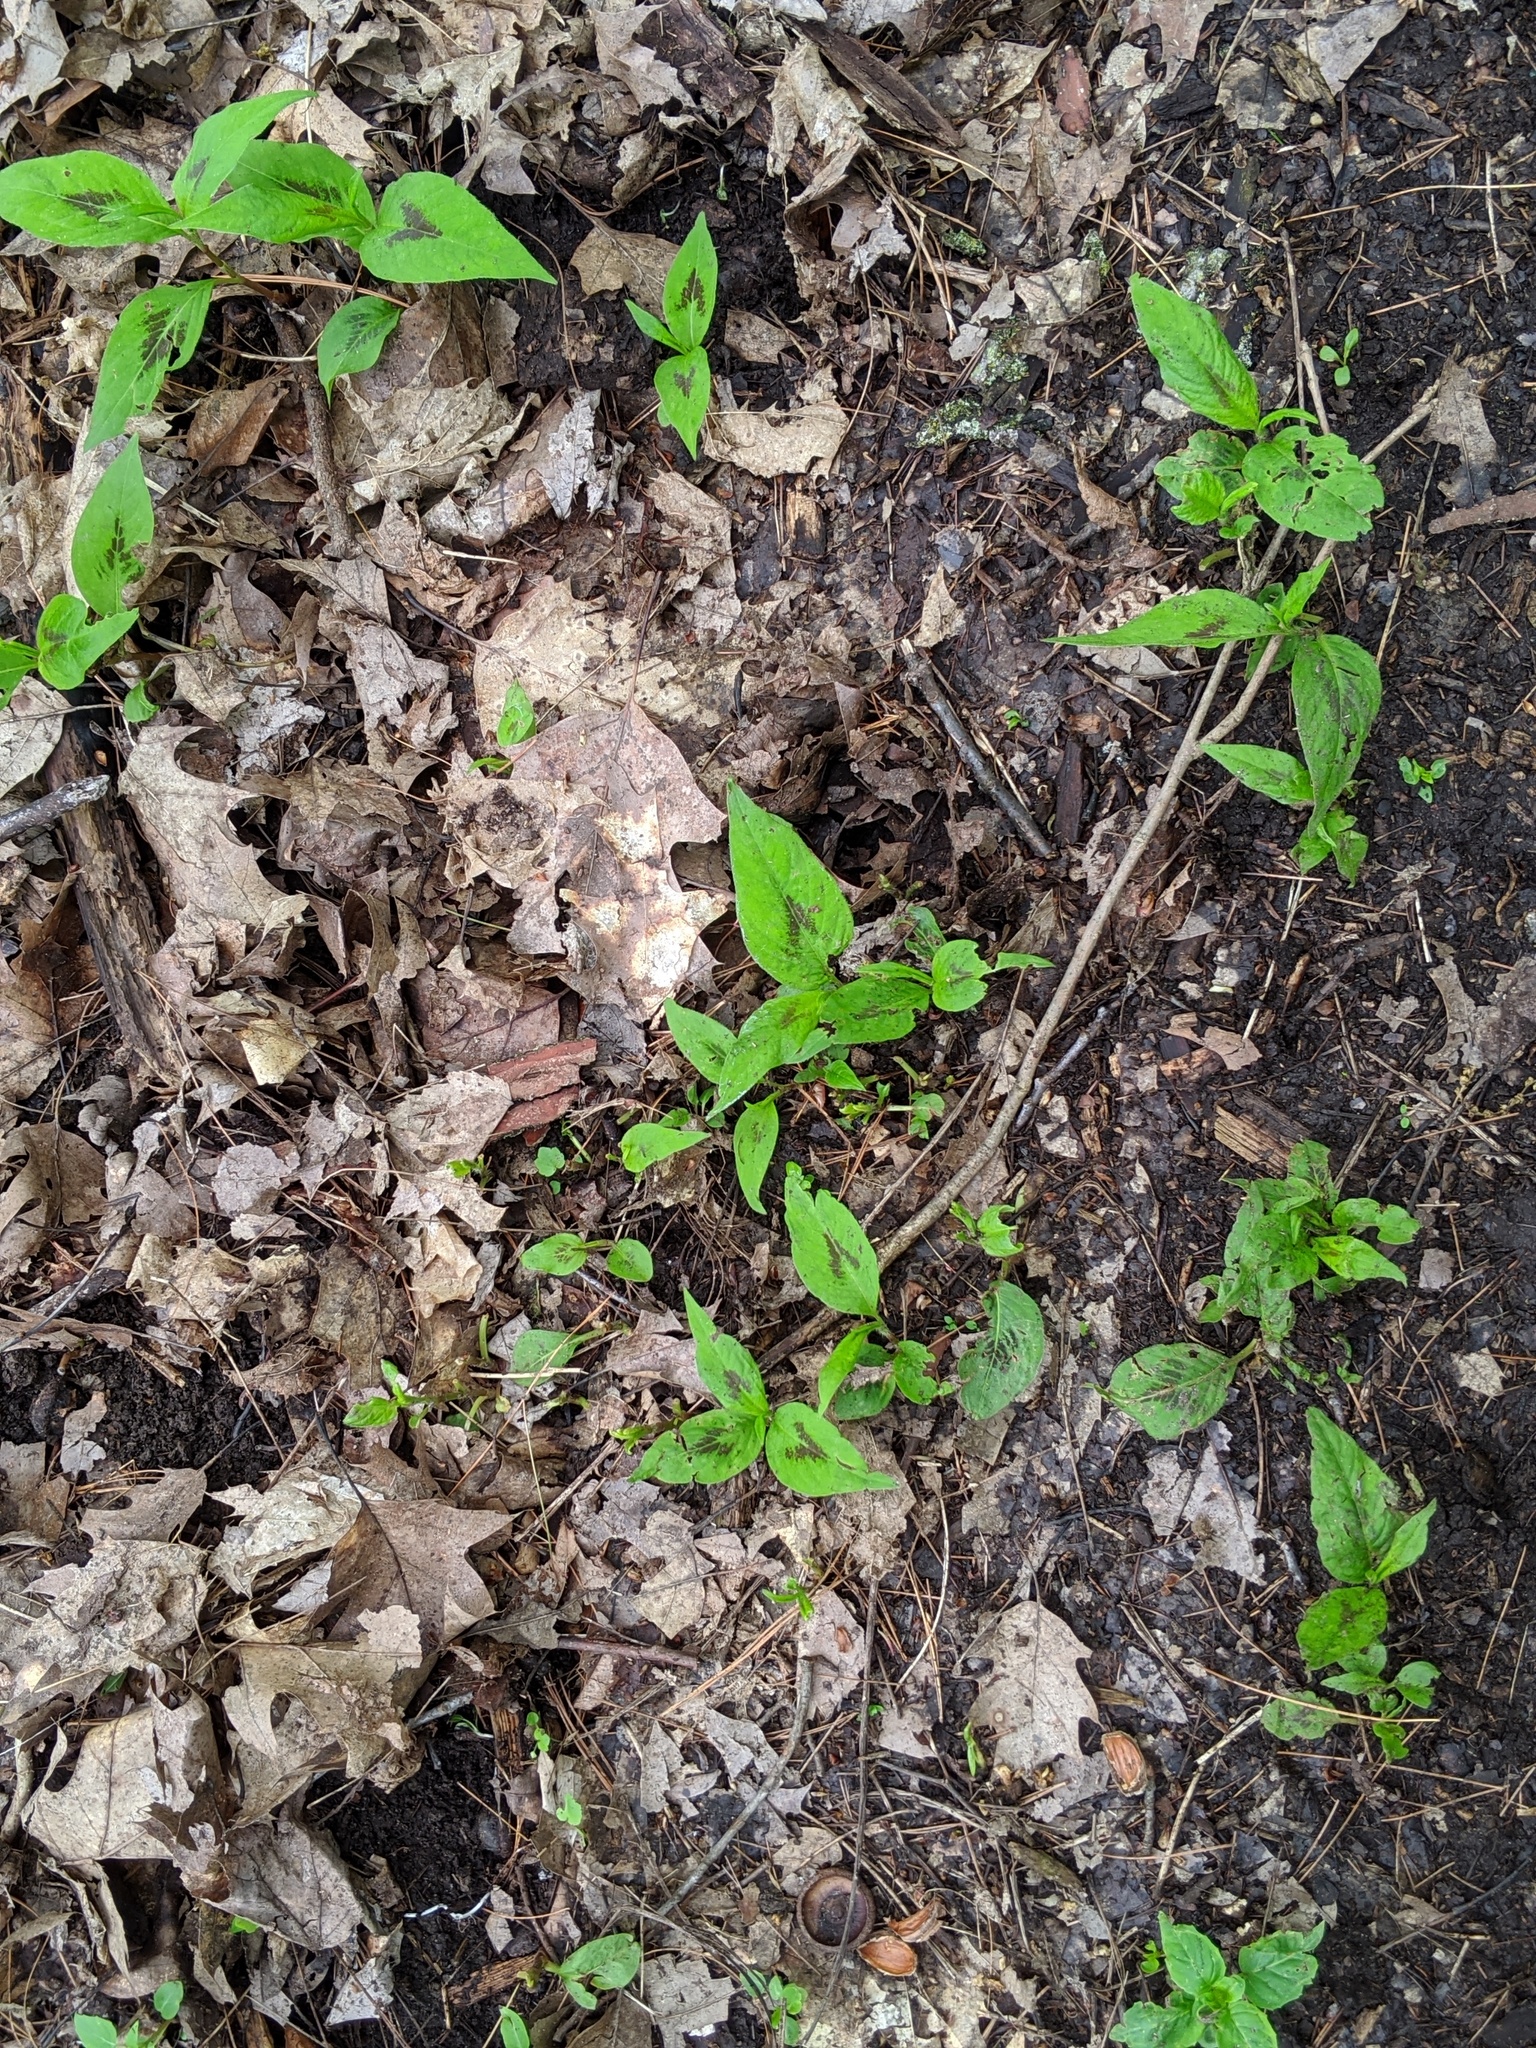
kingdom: Plantae
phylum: Tracheophyta
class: Magnoliopsida
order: Caryophyllales
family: Polygonaceae
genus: Persicaria
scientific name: Persicaria virginiana
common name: Jumpseed
